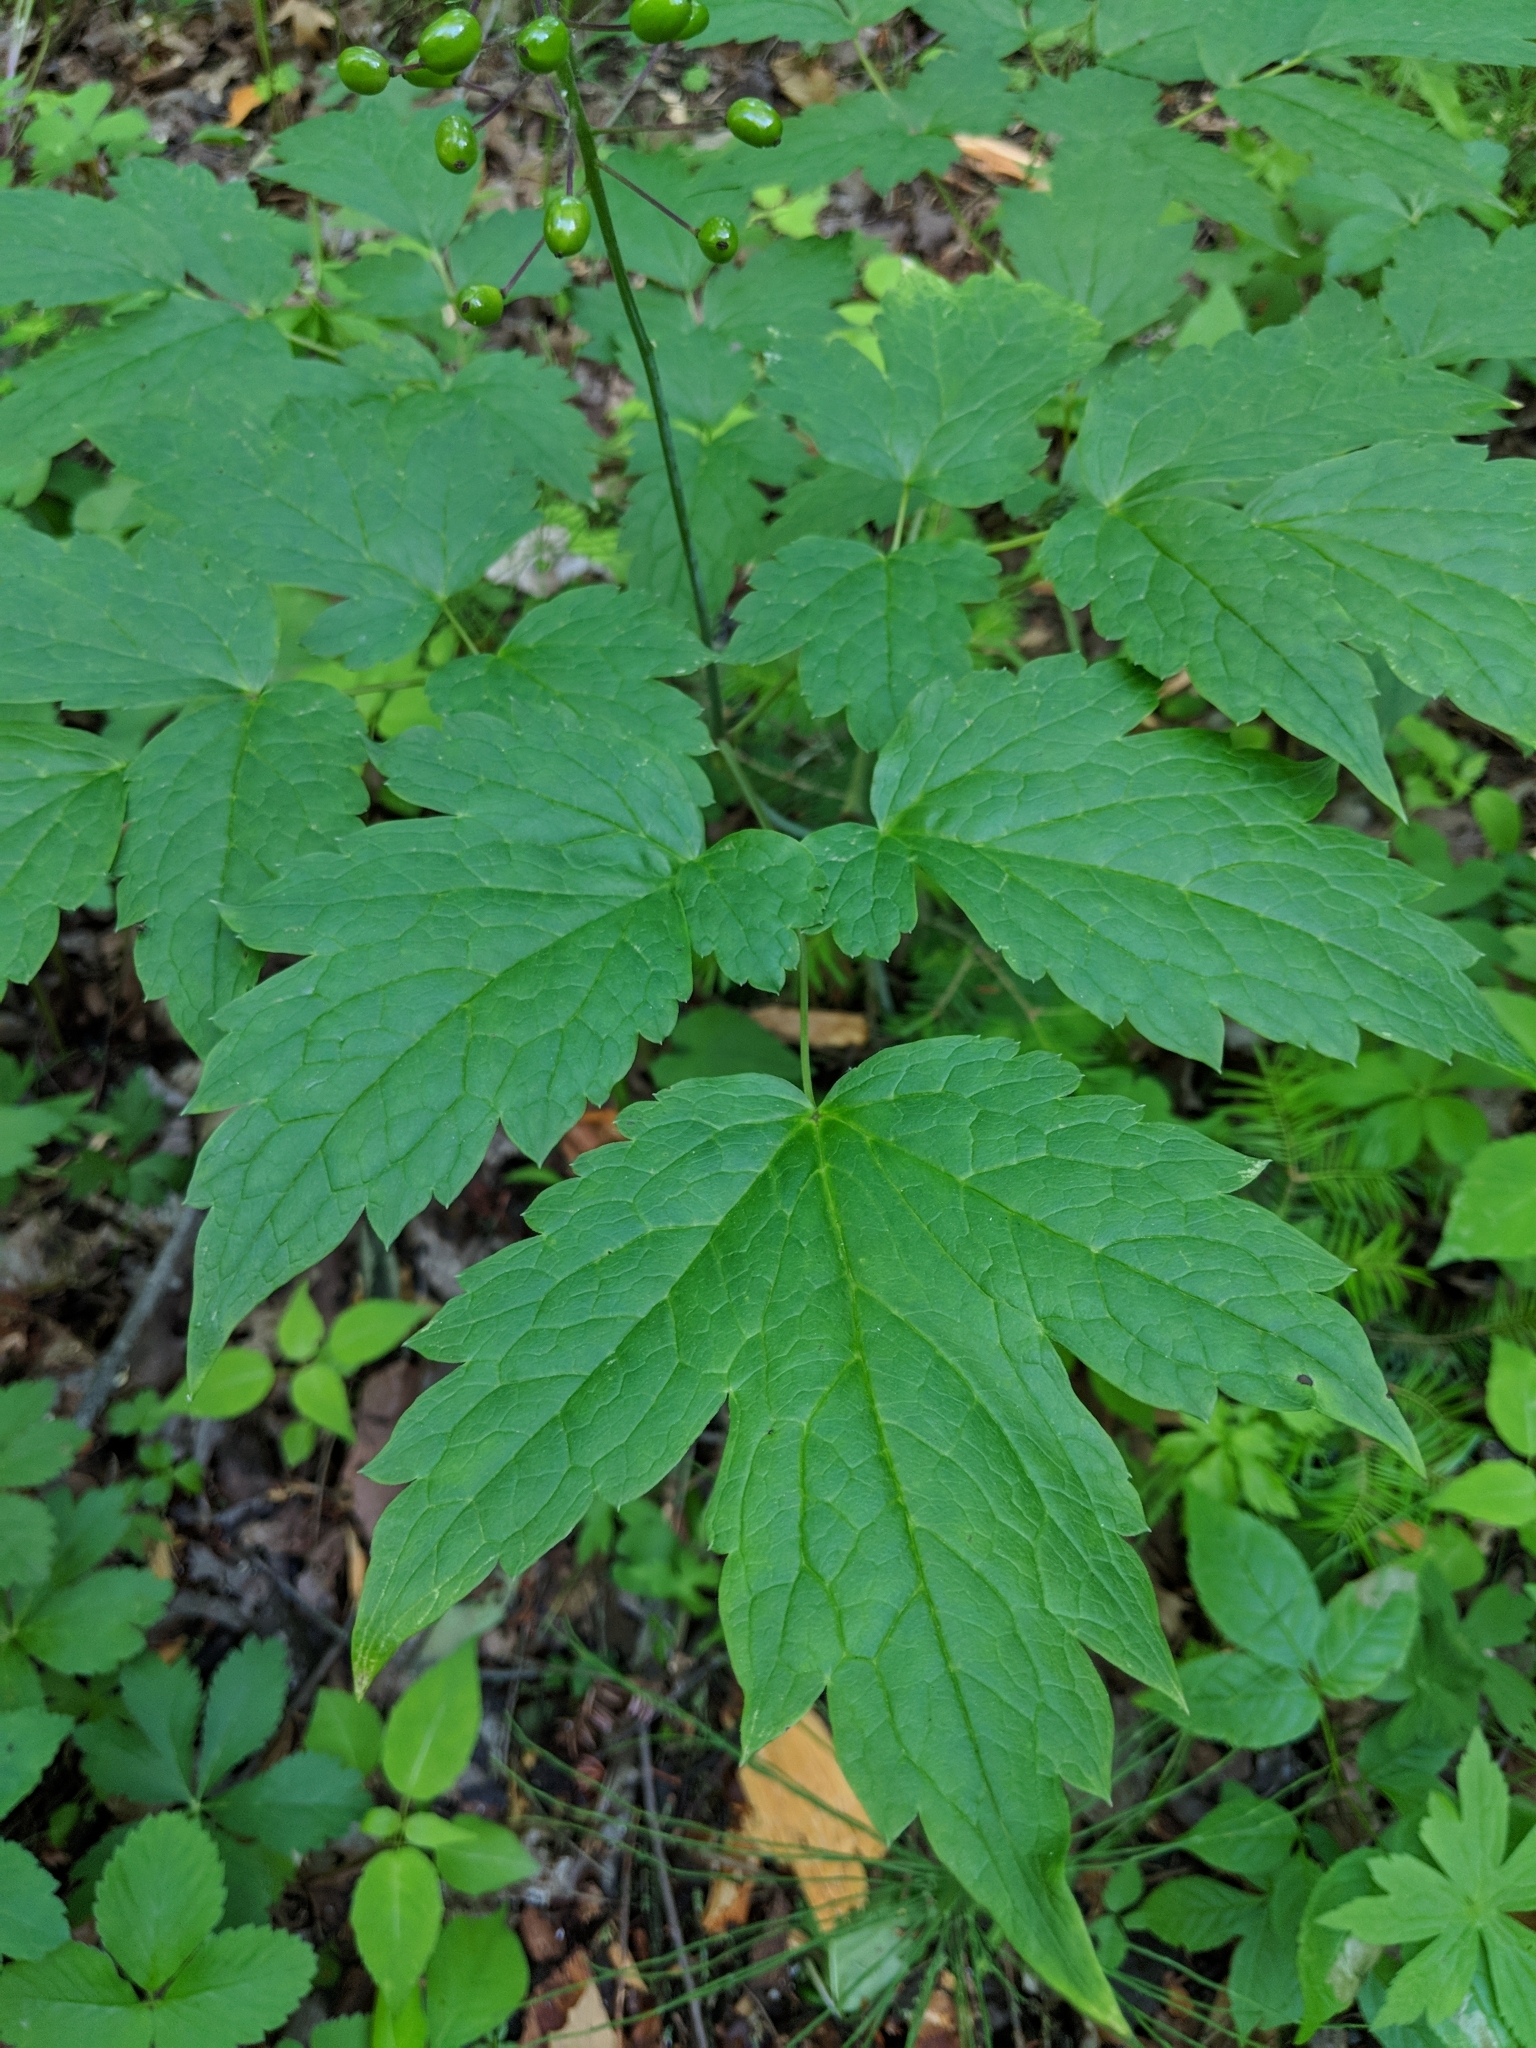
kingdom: Plantae
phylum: Tracheophyta
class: Magnoliopsida
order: Ranunculales
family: Ranunculaceae
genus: Actaea
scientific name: Actaea rubra
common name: Red baneberry
